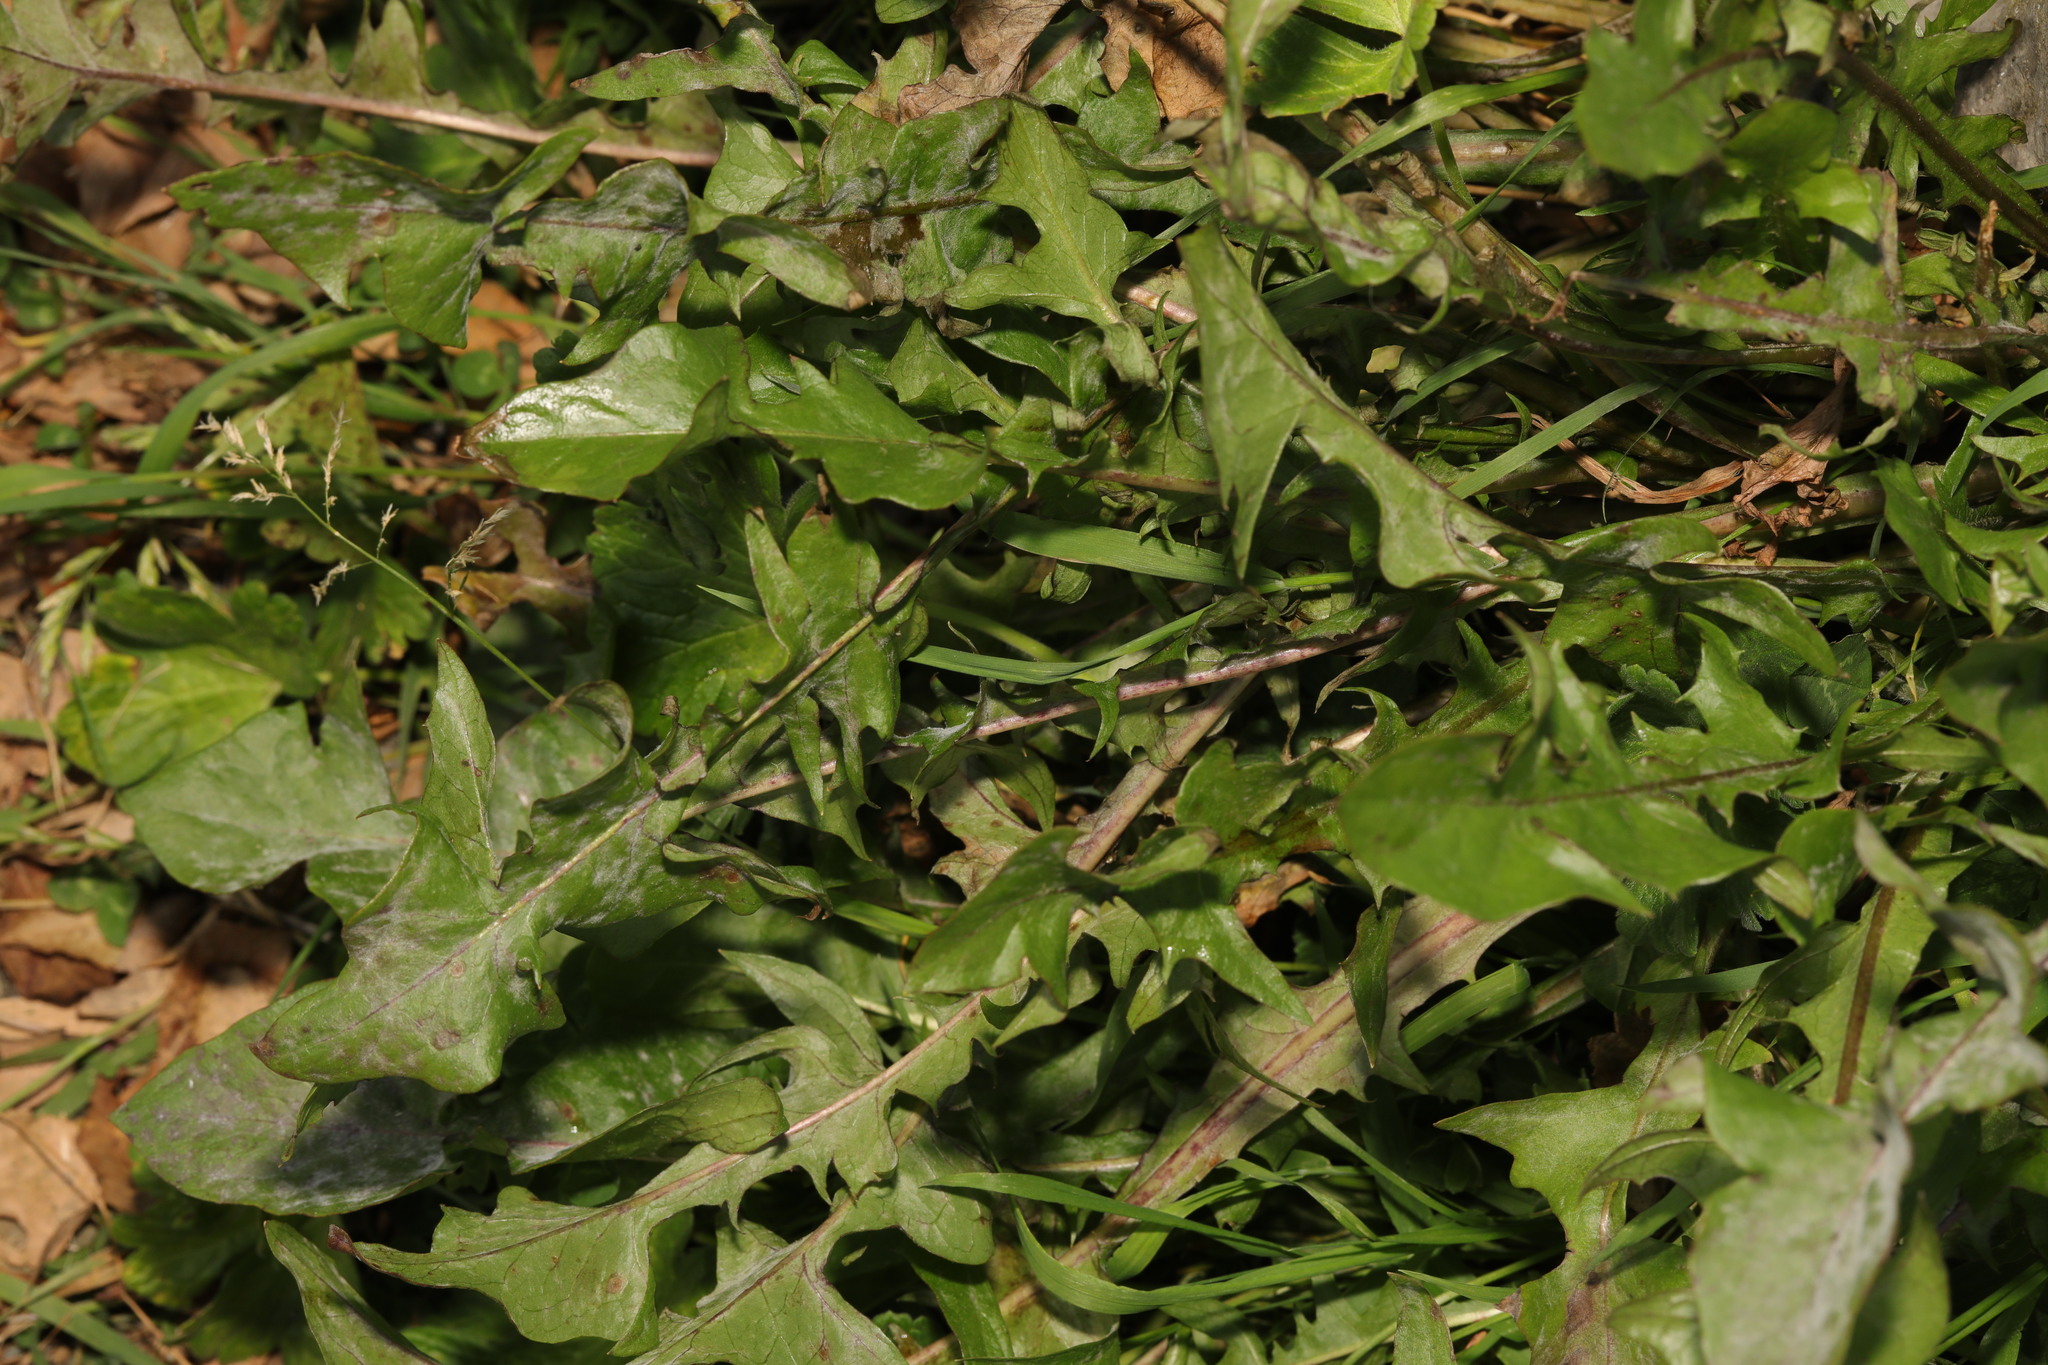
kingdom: Plantae
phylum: Tracheophyta
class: Magnoliopsida
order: Asterales
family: Asteraceae
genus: Taraxacum
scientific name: Taraxacum officinale
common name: Common dandelion
